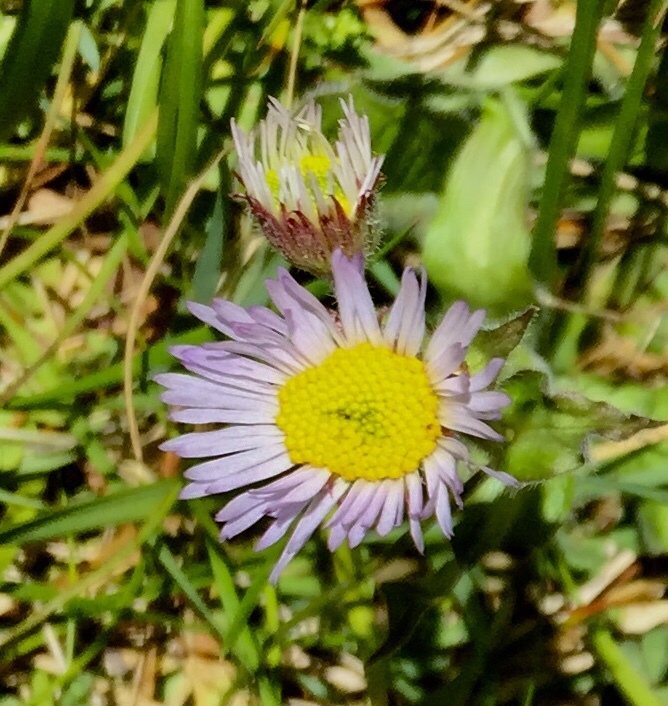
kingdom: Plantae
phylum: Tracheophyta
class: Magnoliopsida
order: Asterales
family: Asteraceae
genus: Erigeron
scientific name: Erigeron pulchellus
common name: Hairy fleabane
